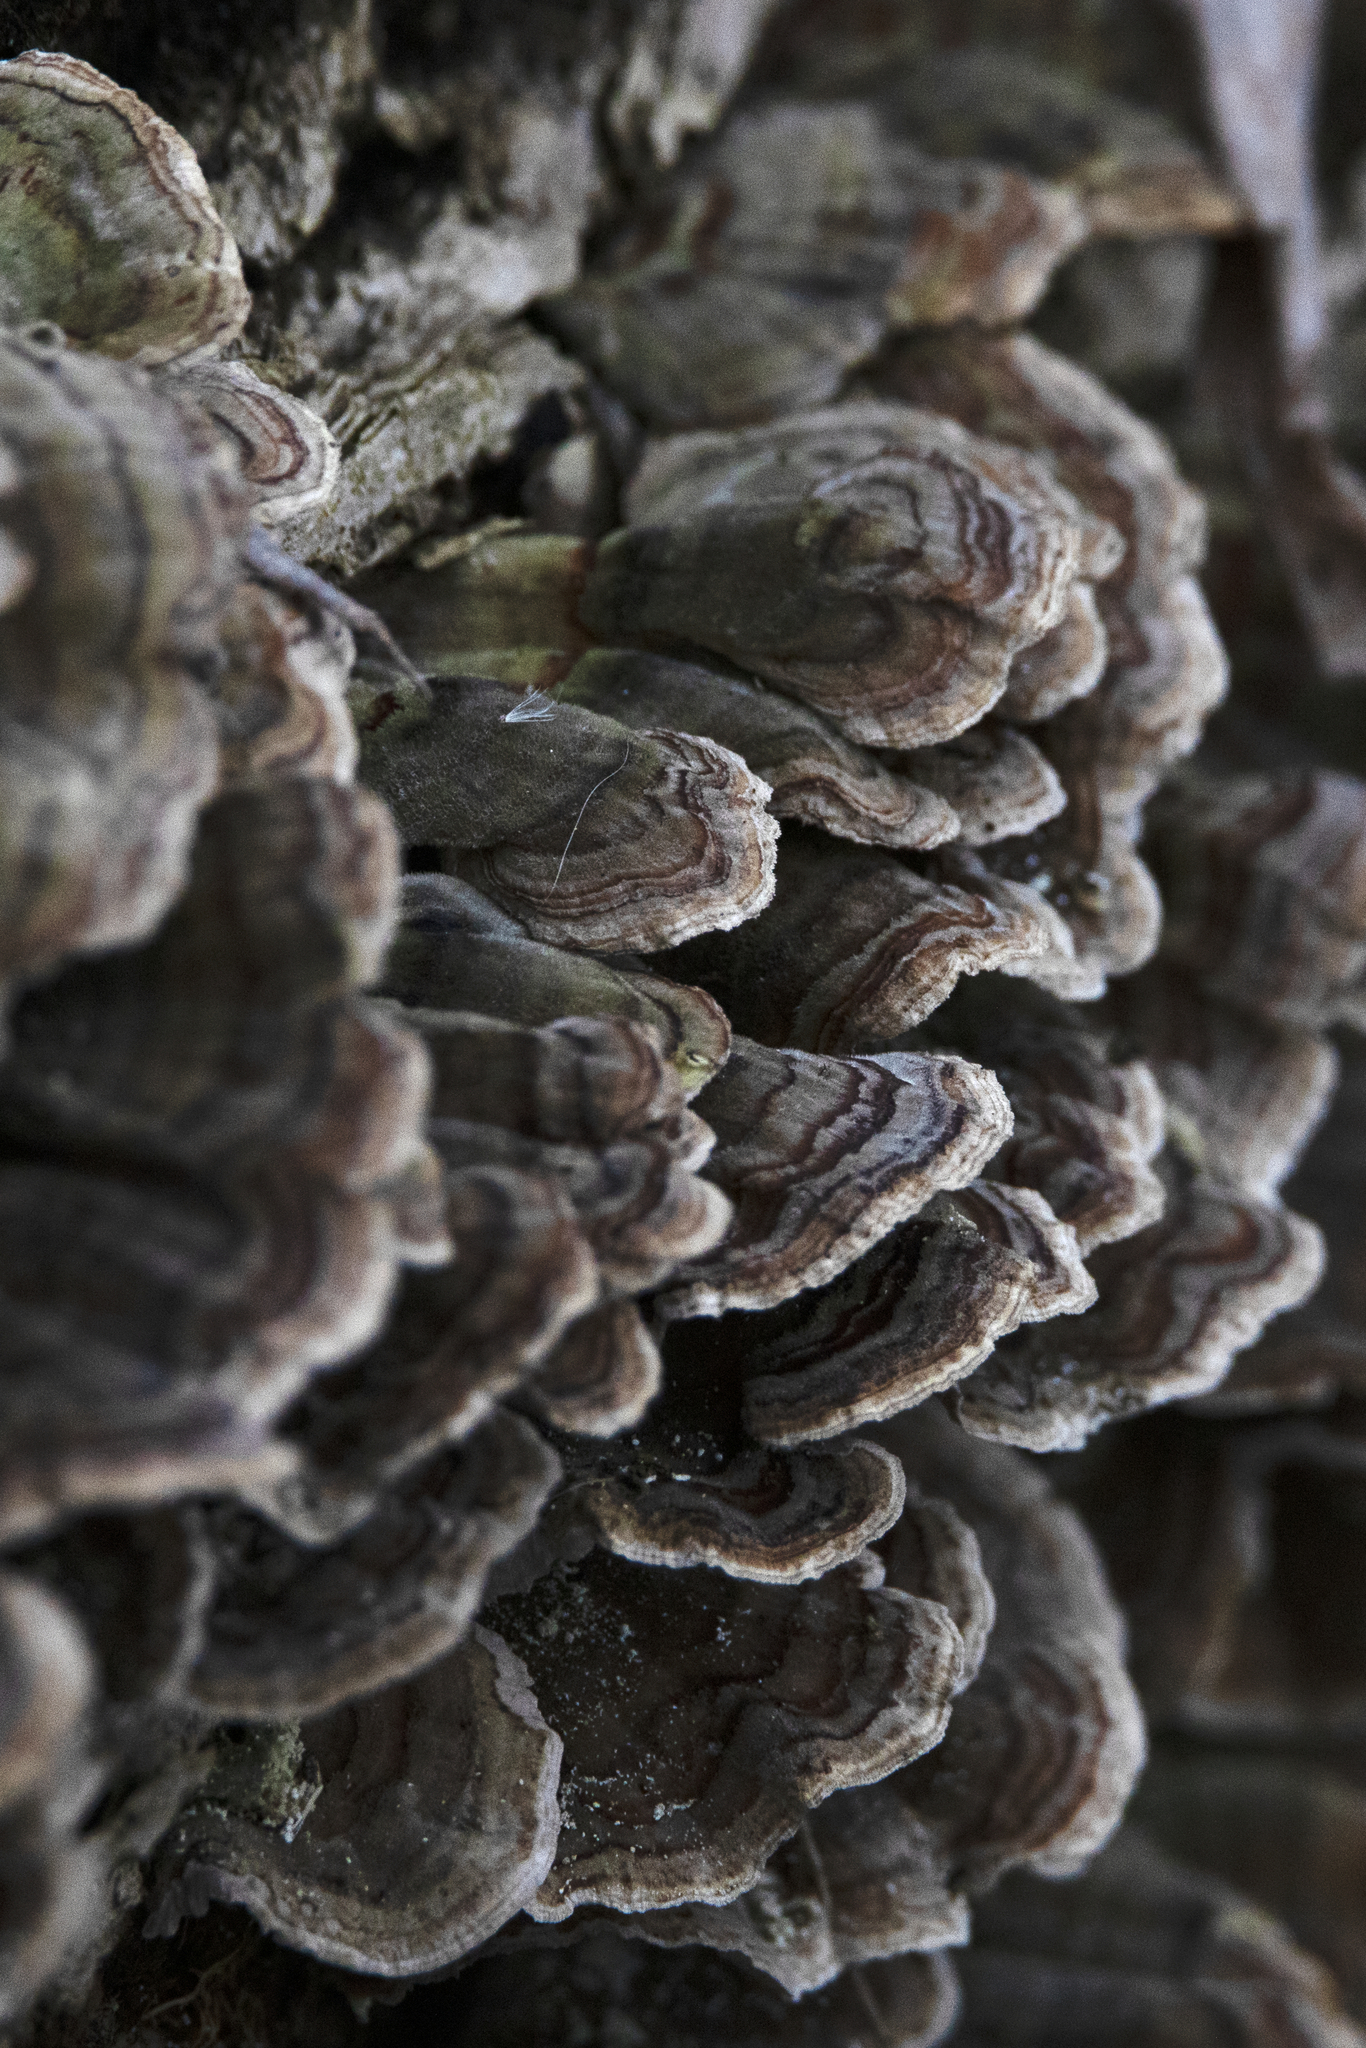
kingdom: Fungi
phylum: Basidiomycota
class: Agaricomycetes
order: Polyporales
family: Polyporaceae
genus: Trametes
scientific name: Trametes versicolor
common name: Turkeytail
